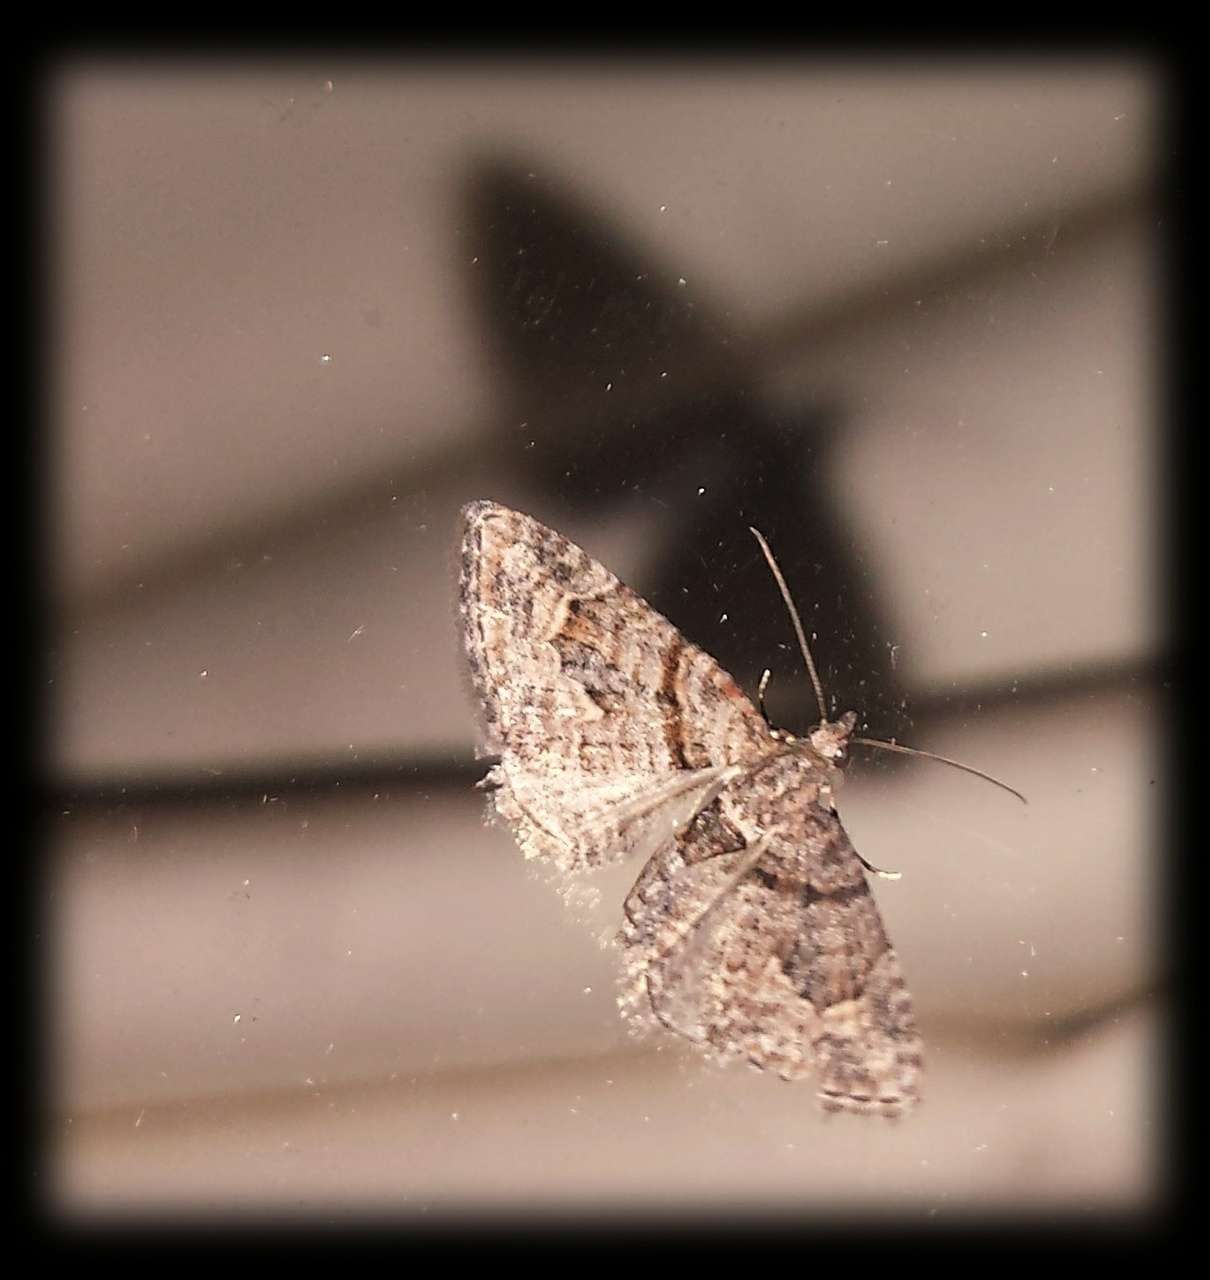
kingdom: Animalia
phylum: Arthropoda
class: Insecta
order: Lepidoptera
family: Geometridae
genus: Phrissogonus
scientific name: Phrissogonus laticostata
